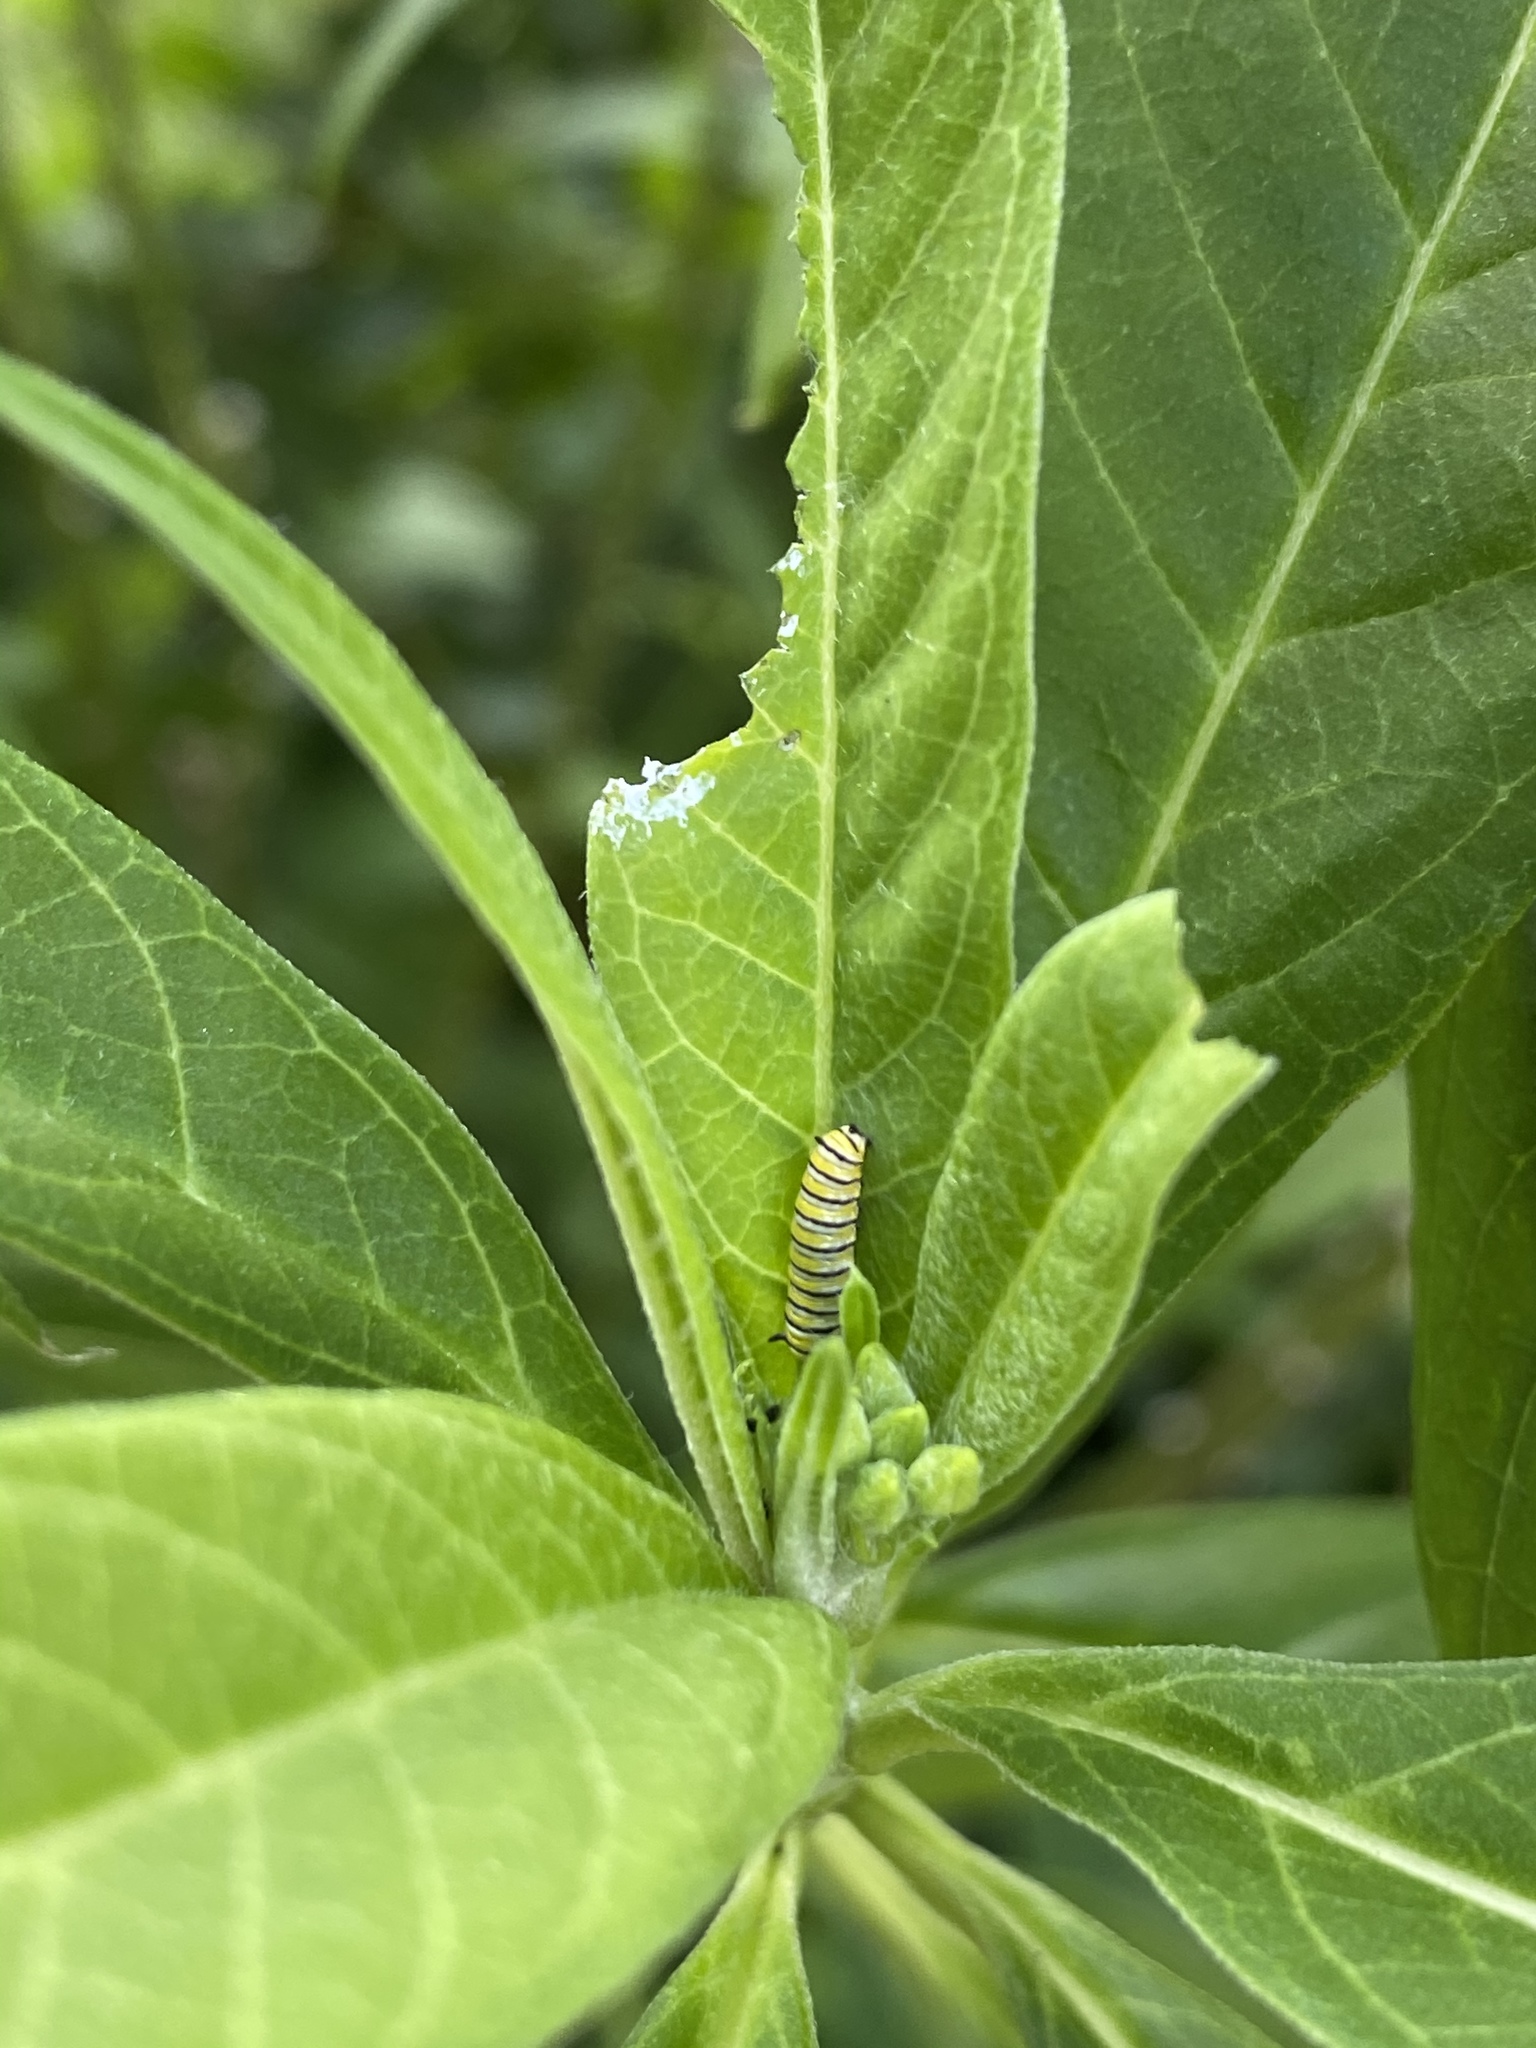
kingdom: Animalia
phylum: Arthropoda
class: Insecta
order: Lepidoptera
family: Nymphalidae
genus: Danaus
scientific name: Danaus plexippus
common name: Monarch
